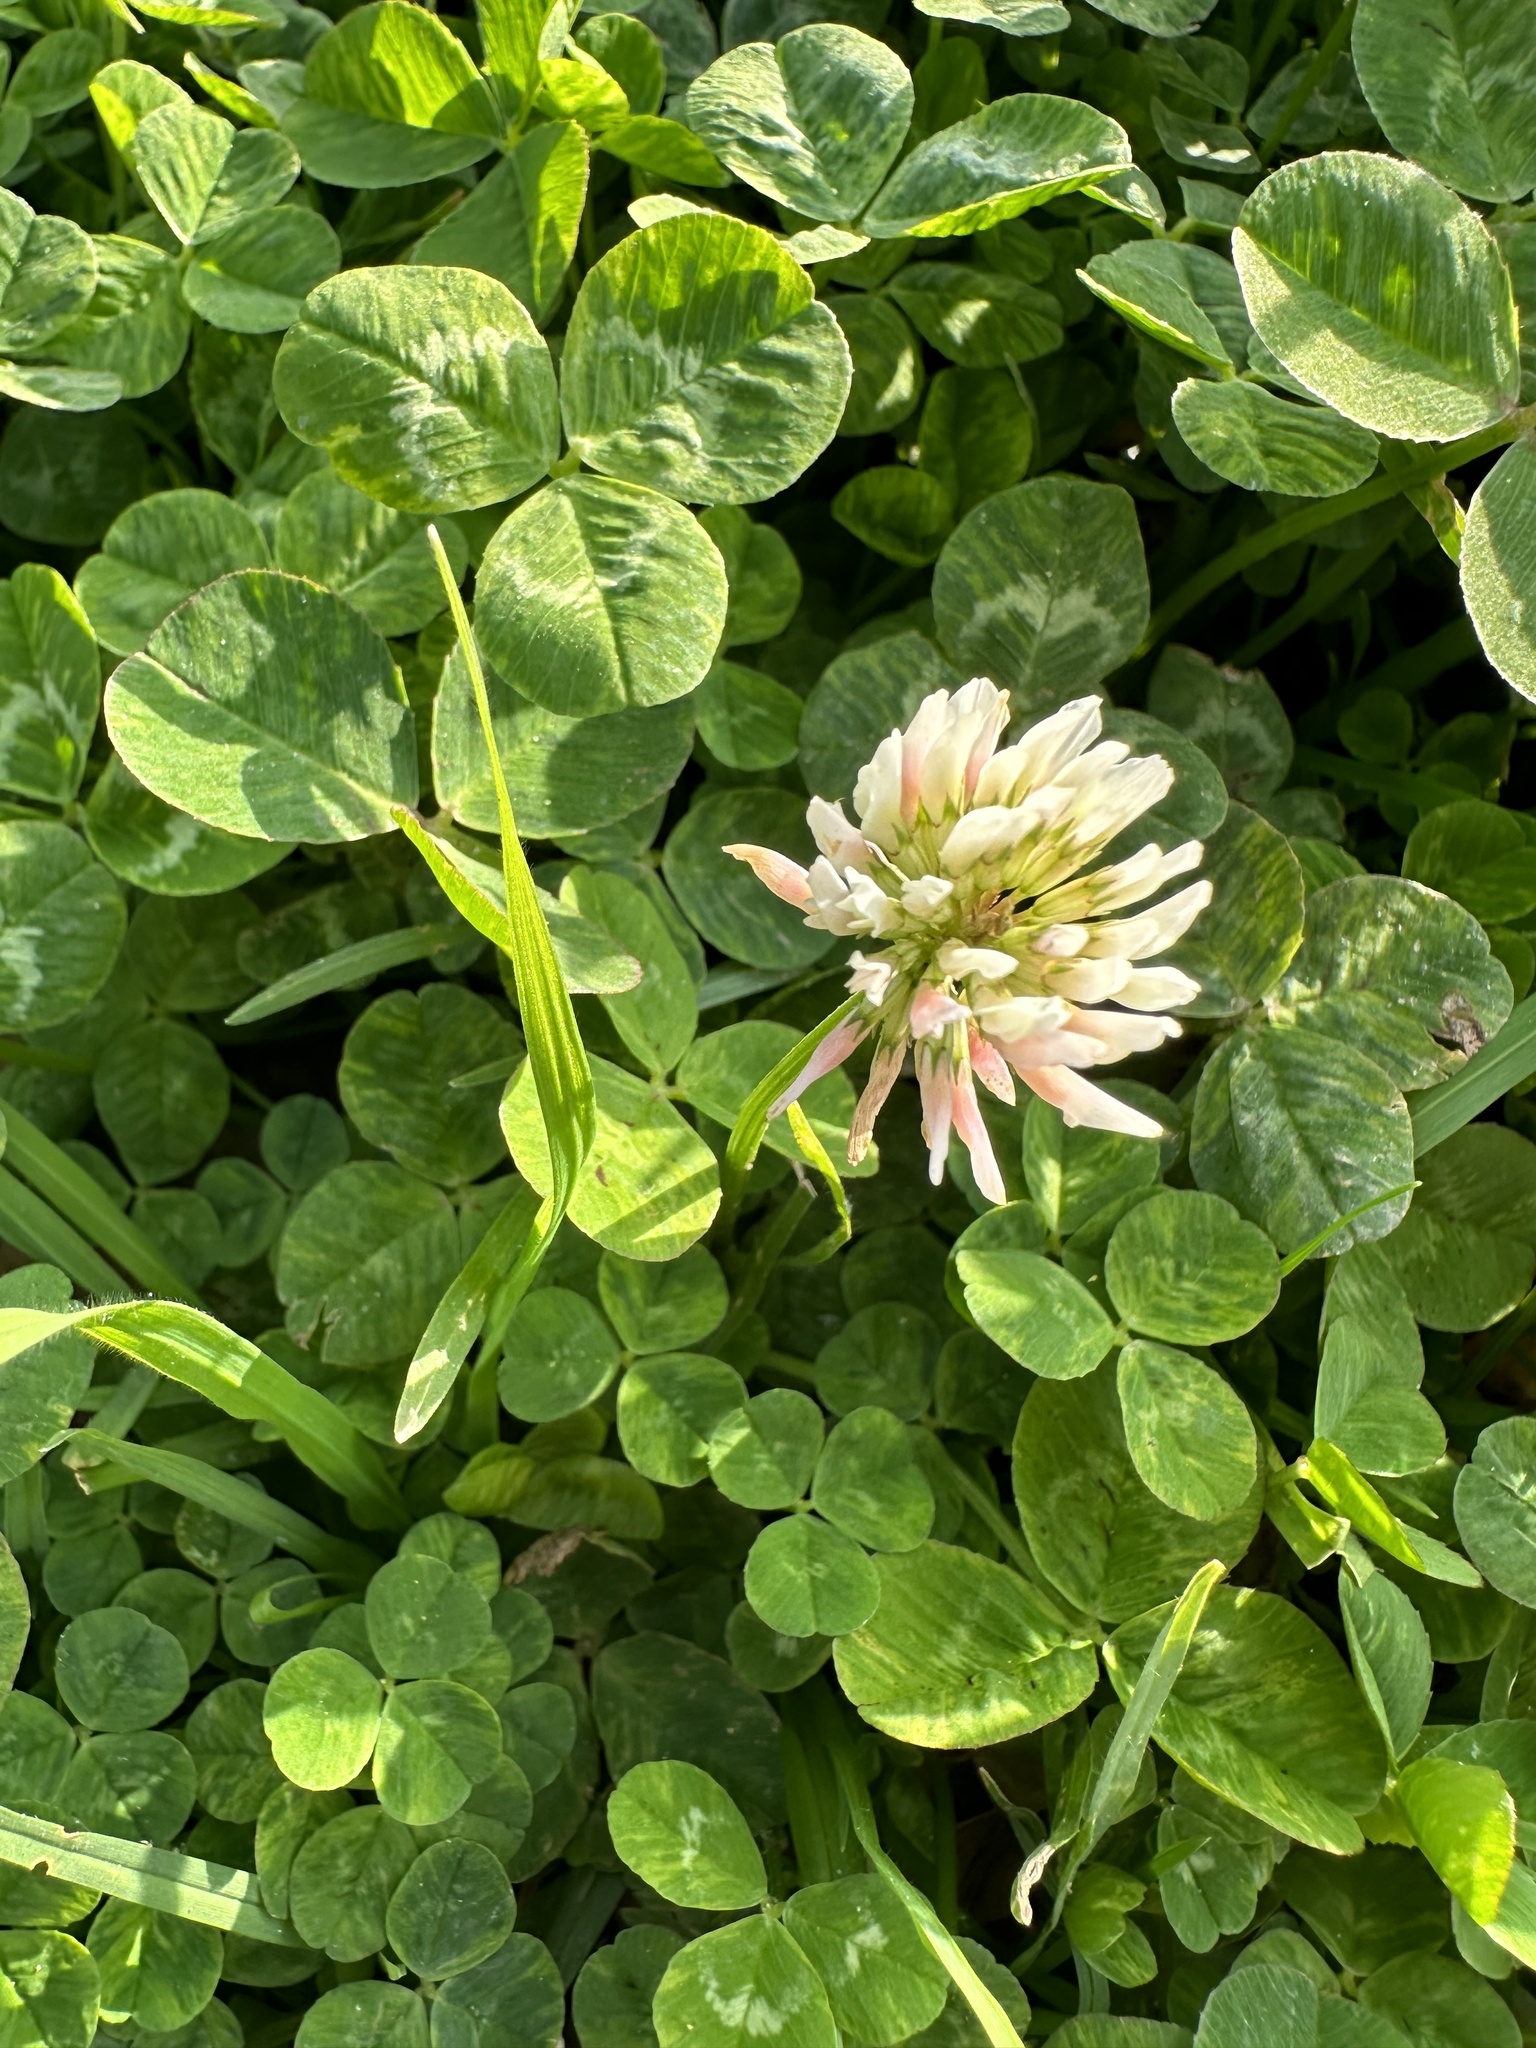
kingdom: Plantae
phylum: Tracheophyta
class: Magnoliopsida
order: Fabales
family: Fabaceae
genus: Trifolium
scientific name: Trifolium repens
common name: White clover
